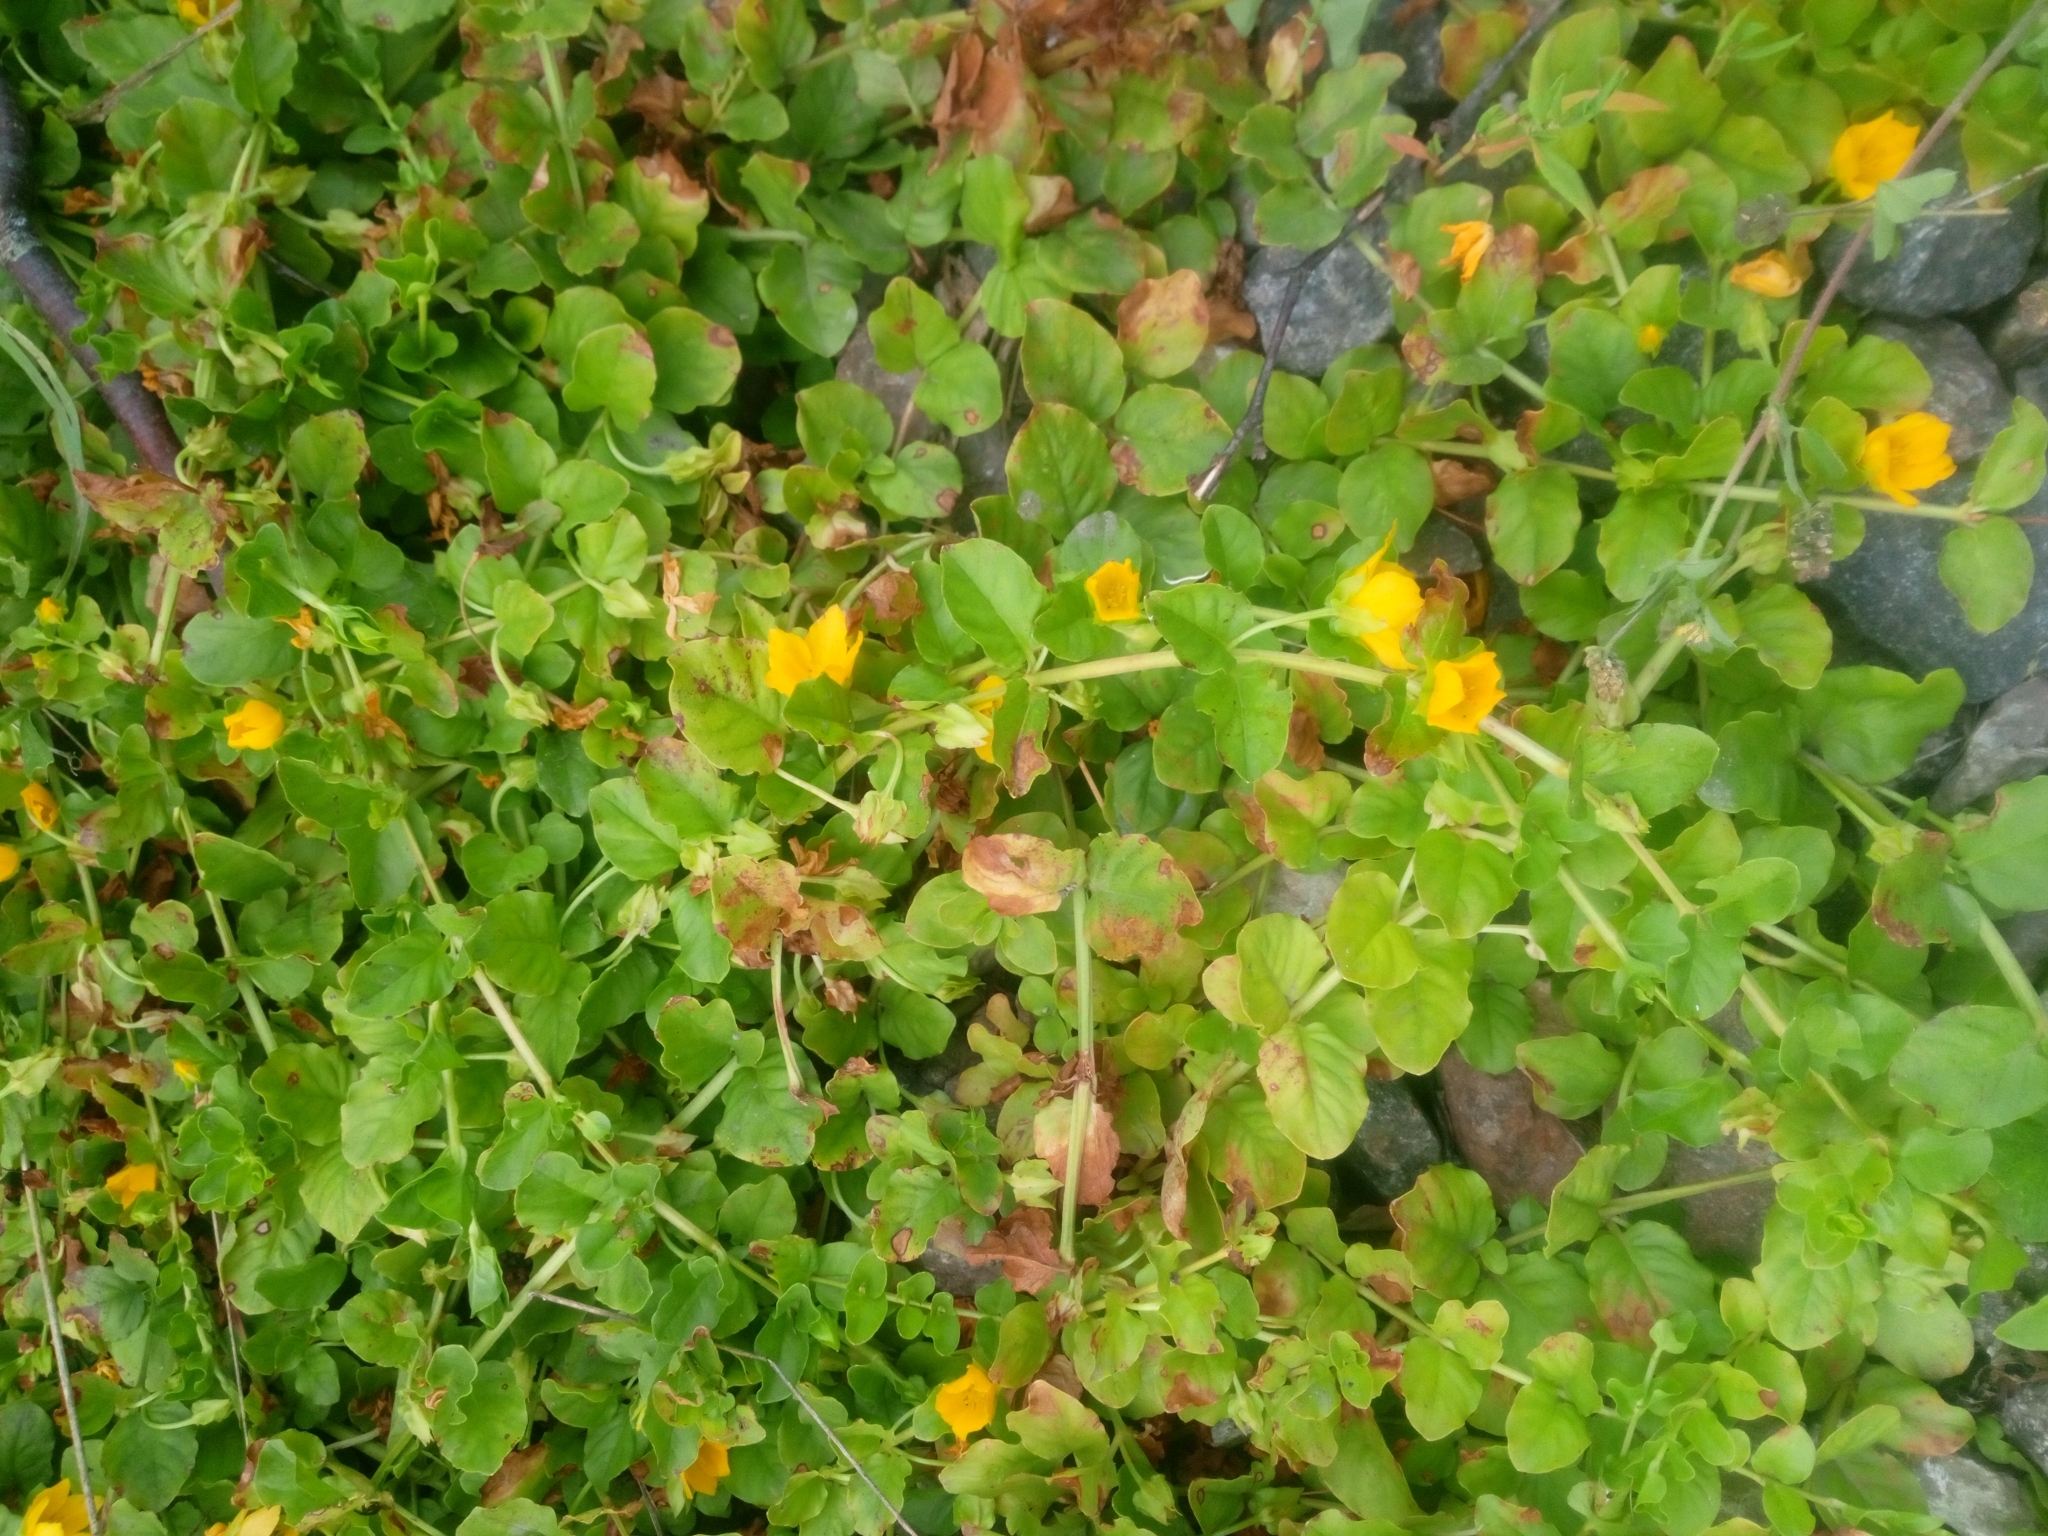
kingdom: Plantae
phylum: Tracheophyta
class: Magnoliopsida
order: Ericales
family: Primulaceae
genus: Lysimachia
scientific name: Lysimachia nummularia
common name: Moneywort
